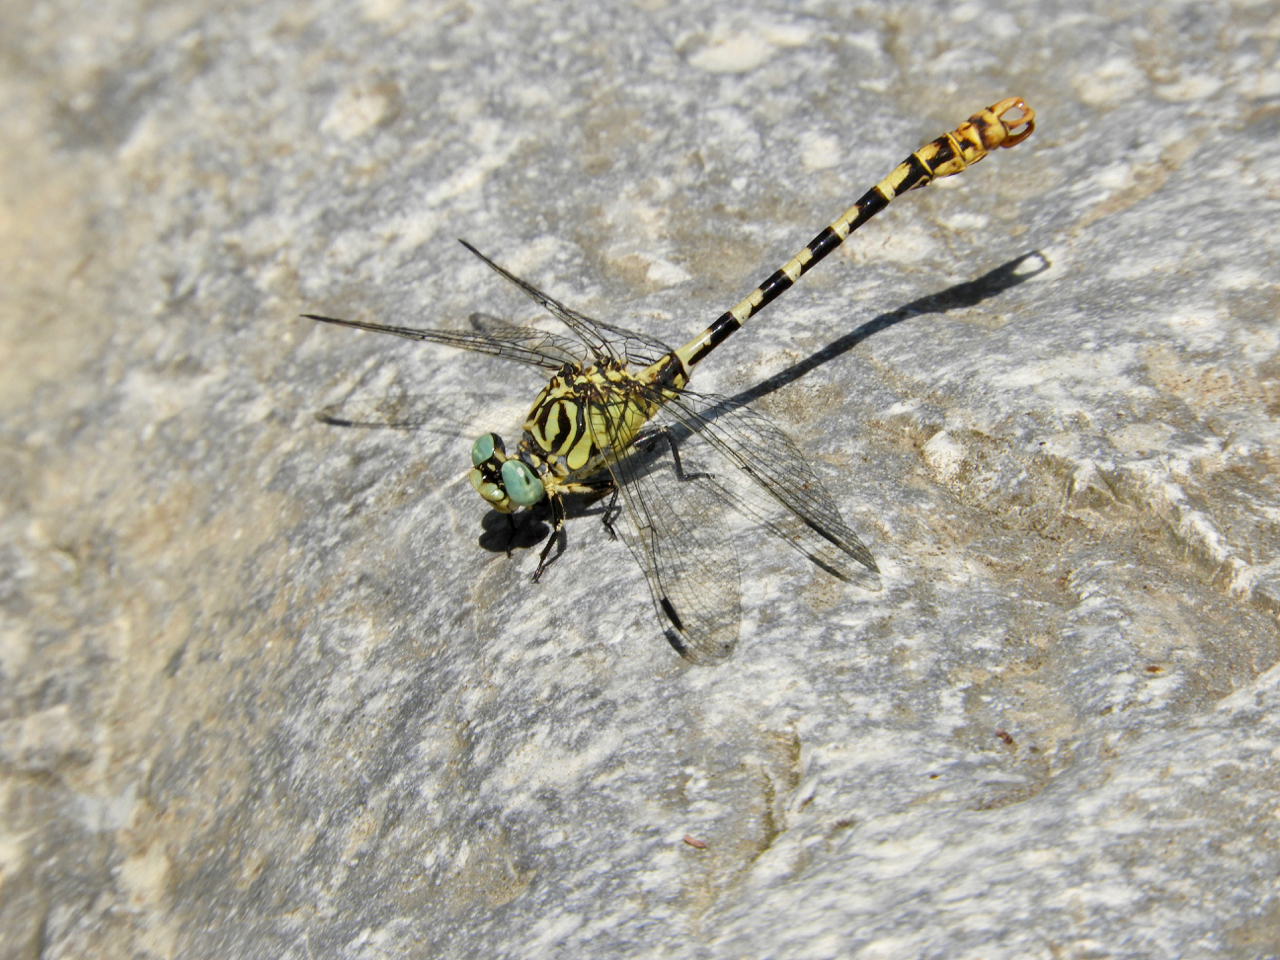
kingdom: Animalia
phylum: Arthropoda
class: Insecta
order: Odonata
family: Gomphidae
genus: Onychogomphus
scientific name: Onychogomphus forcipatus
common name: Small pincertail
